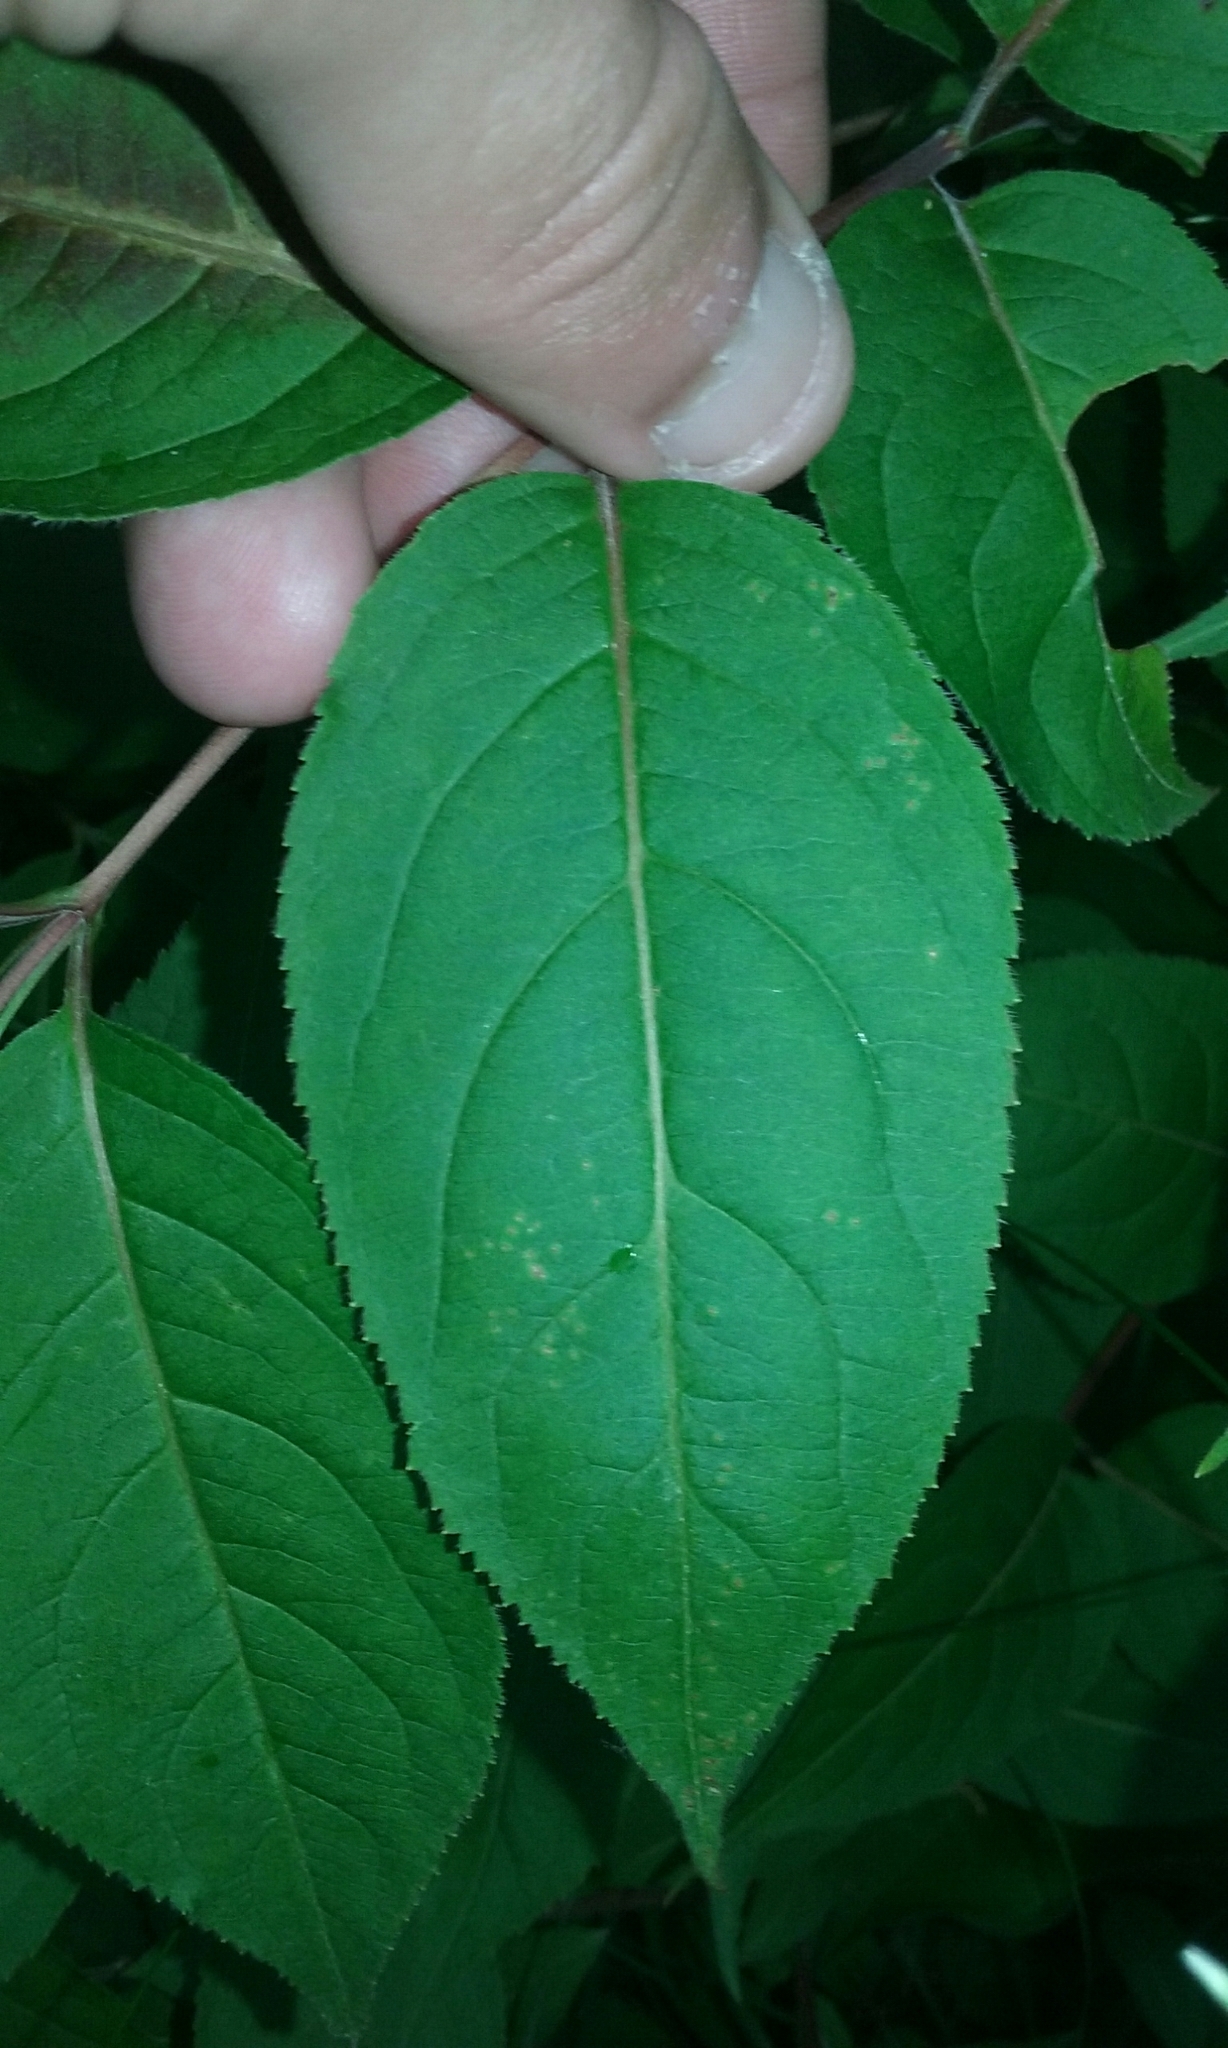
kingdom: Plantae
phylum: Tracheophyta
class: Magnoliopsida
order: Dipsacales
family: Caprifoliaceae
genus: Diervilla
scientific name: Diervilla lonicera
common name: Bush-honeysuckle
